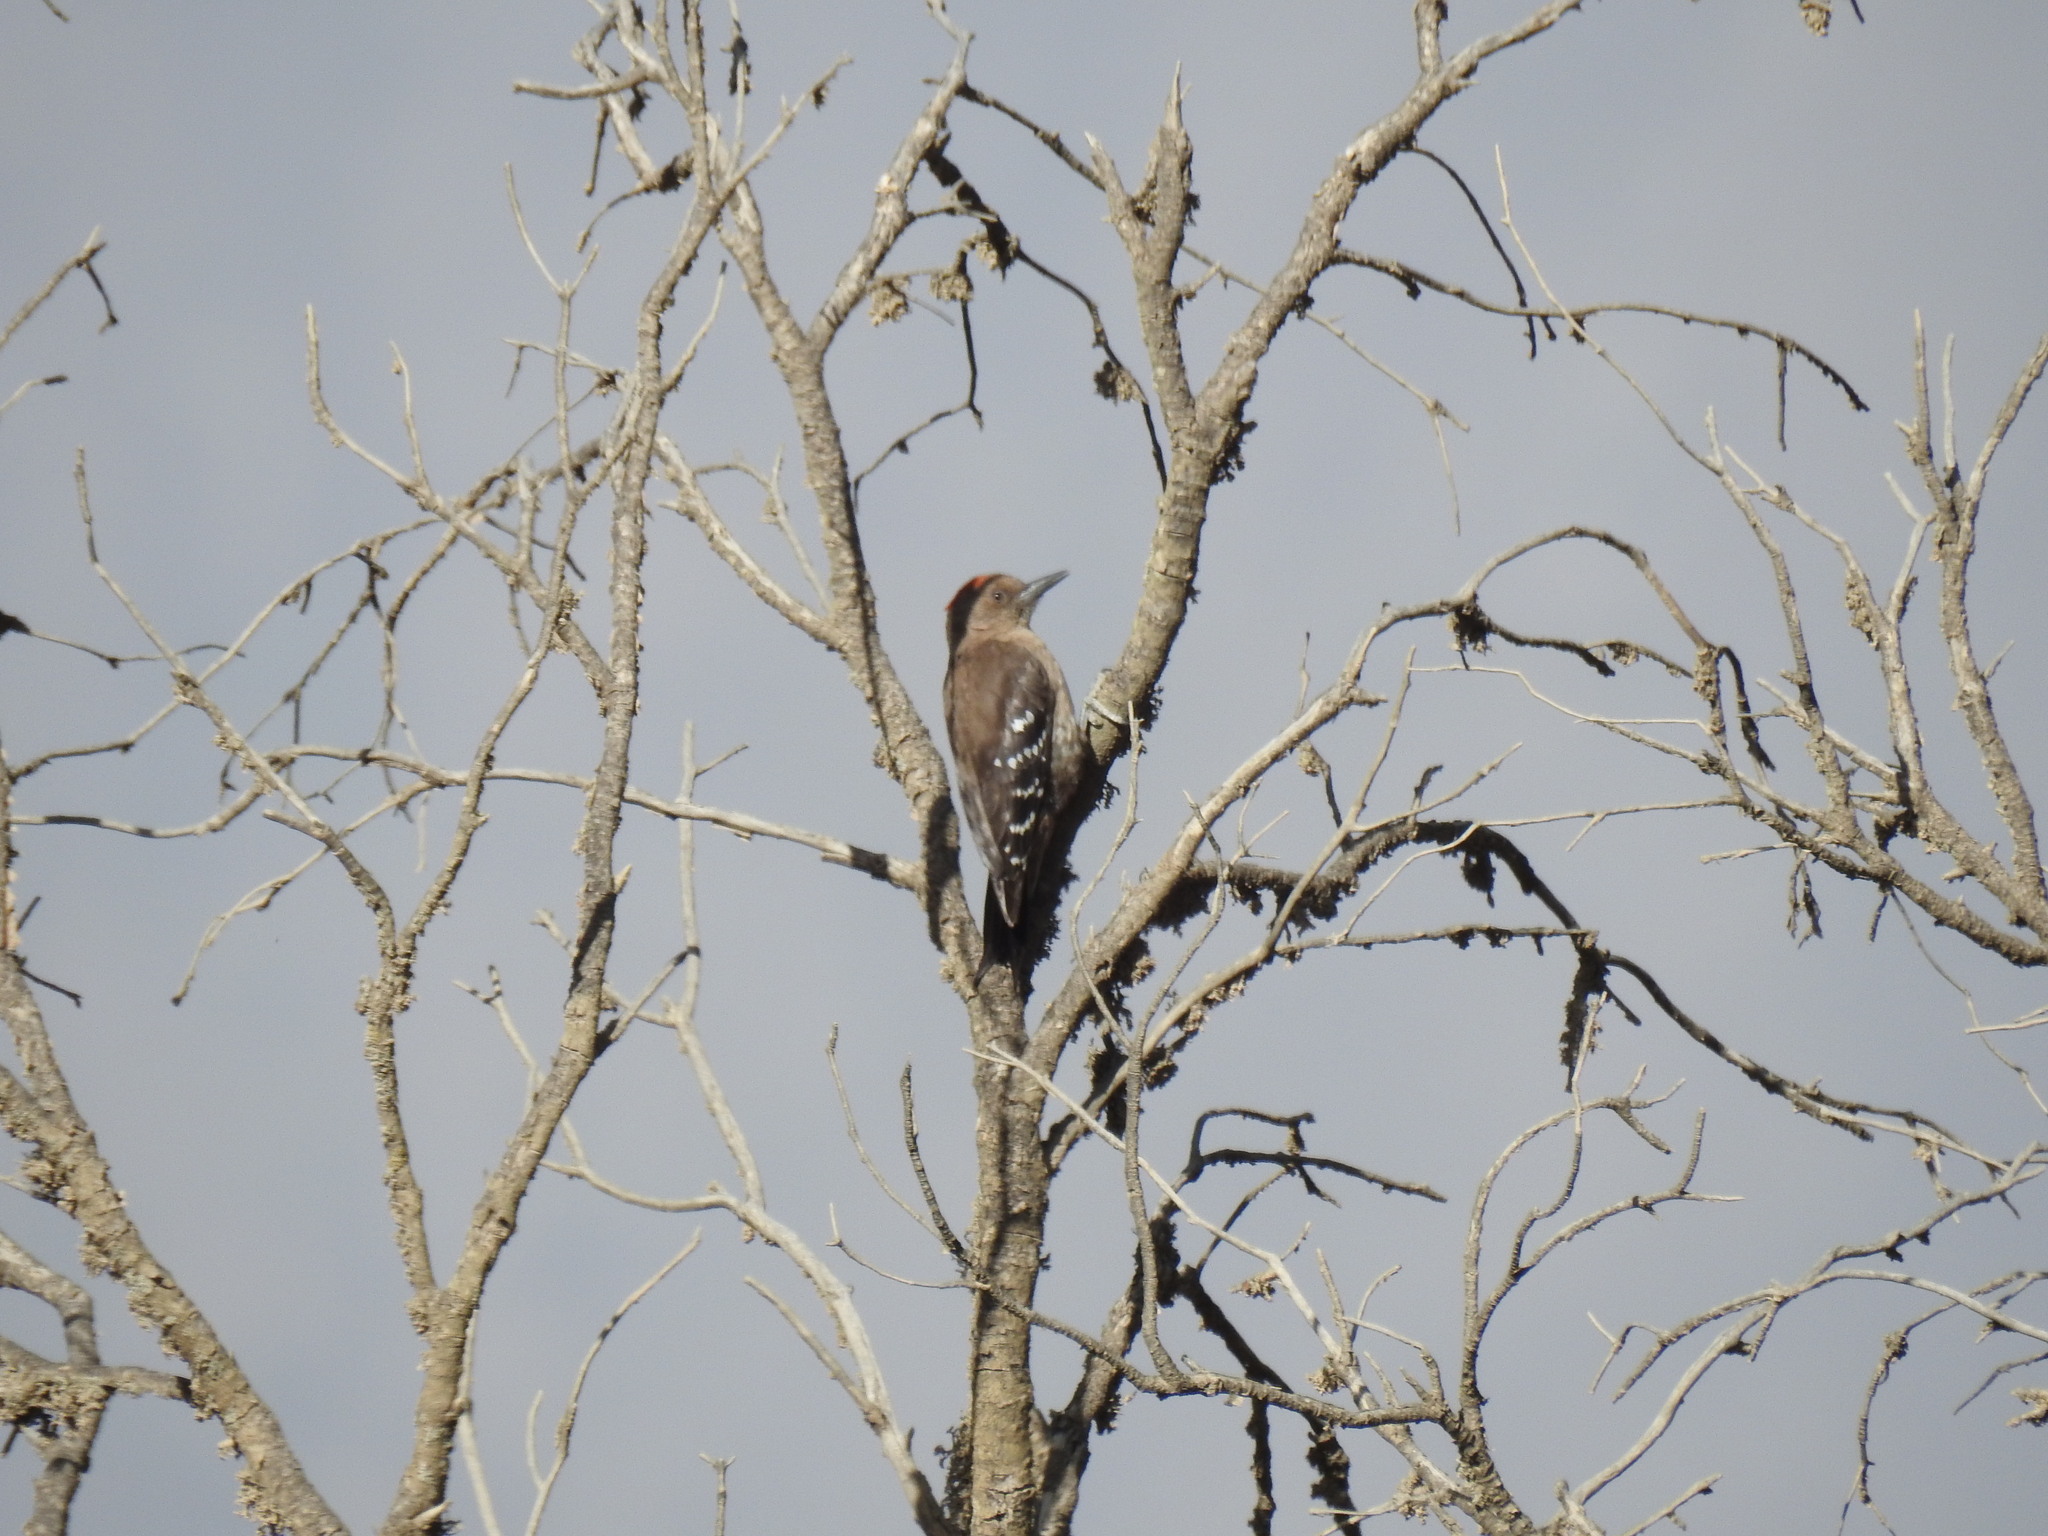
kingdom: Animalia
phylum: Chordata
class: Aves
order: Piciformes
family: Picidae
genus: Dendrocoptes
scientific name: Dendrocoptes dorae
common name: Arabian woodpecker
